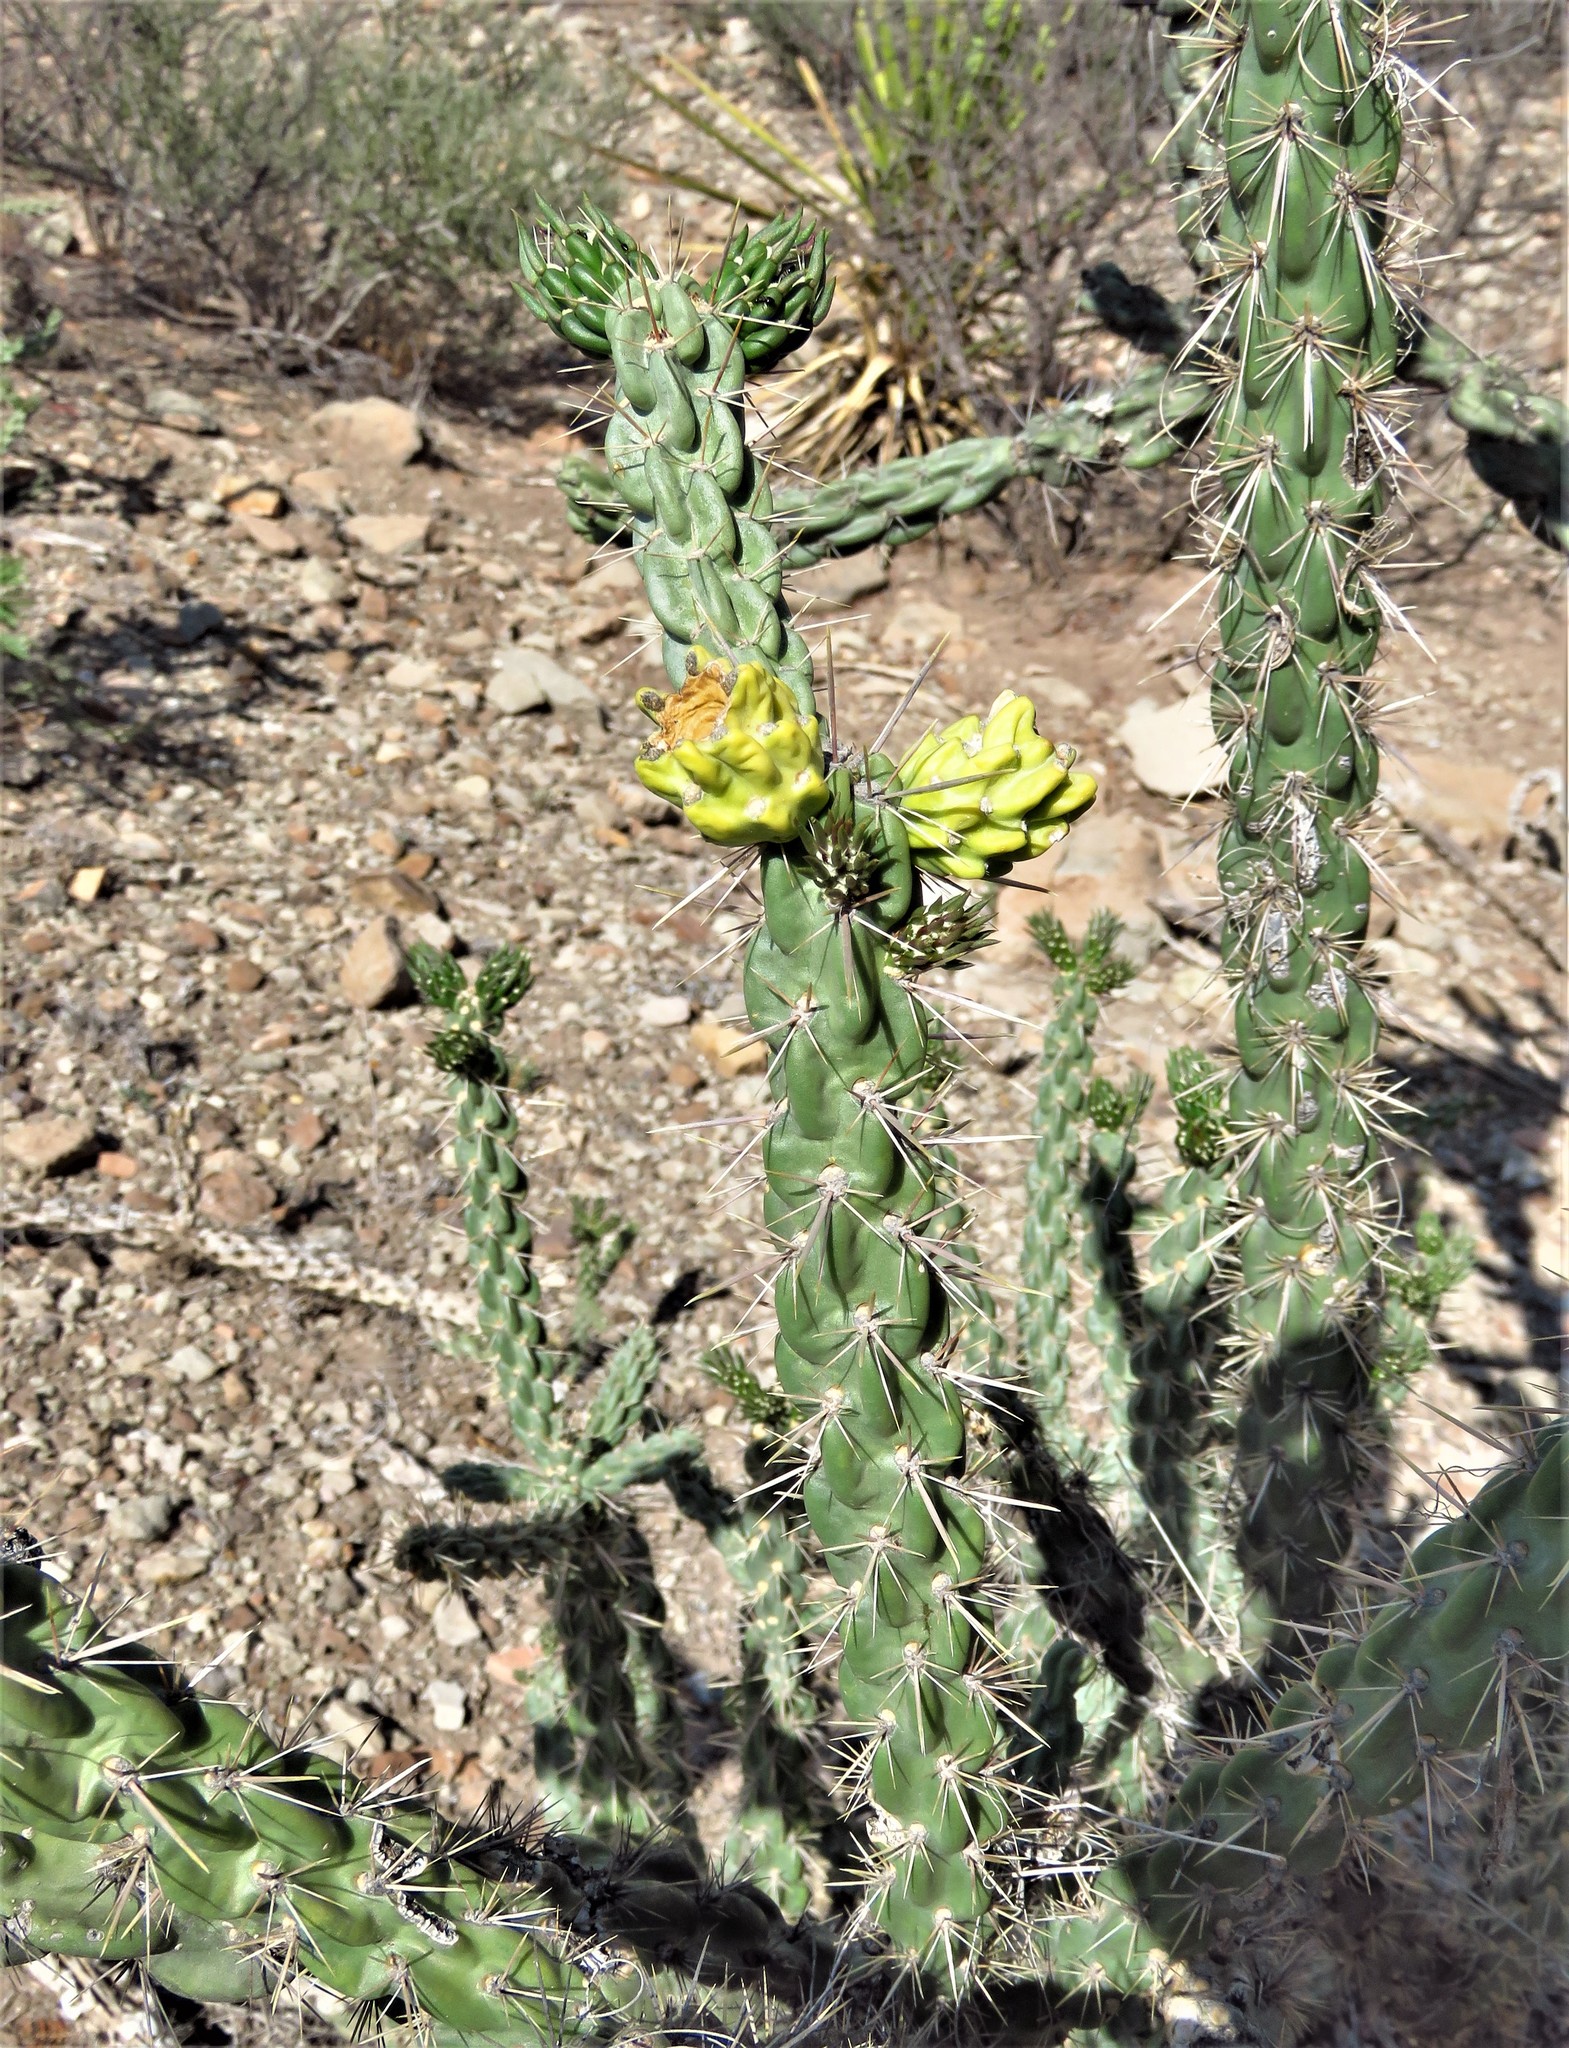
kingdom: Plantae
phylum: Tracheophyta
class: Magnoliopsida
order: Caryophyllales
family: Cactaceae
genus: Cylindropuntia
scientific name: Cylindropuntia imbricata
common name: Candelabrum cactus
